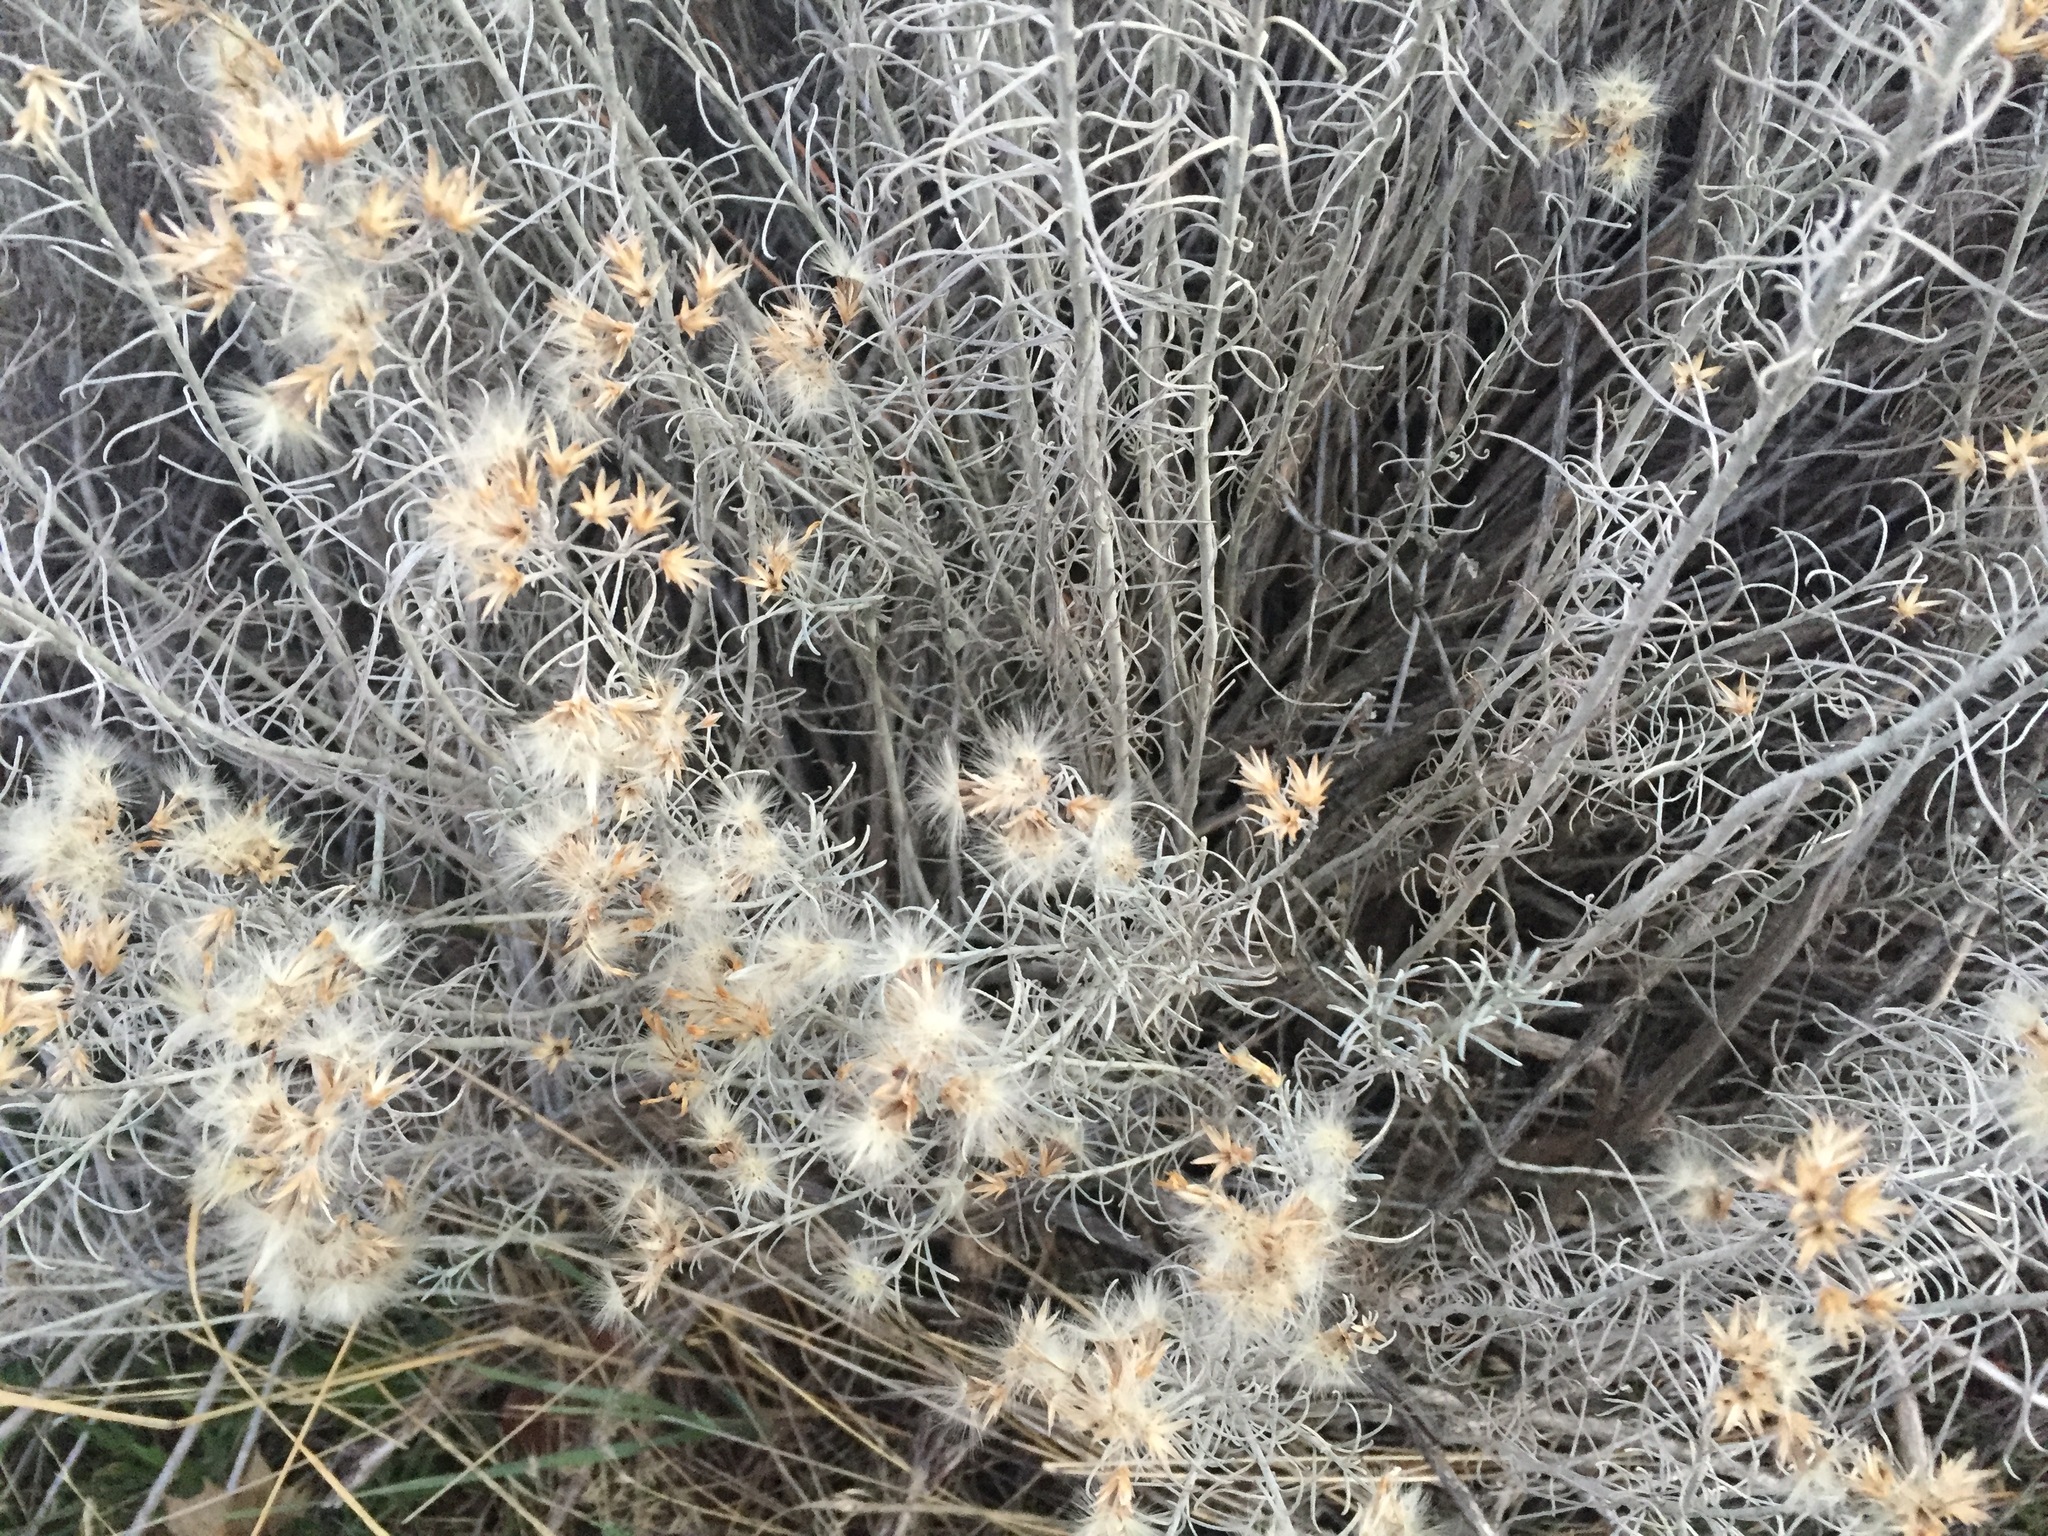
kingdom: Plantae
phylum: Tracheophyta
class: Magnoliopsida
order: Asterales
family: Asteraceae
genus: Ericameria
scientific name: Ericameria nauseosa
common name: Rubber rabbitbrush
